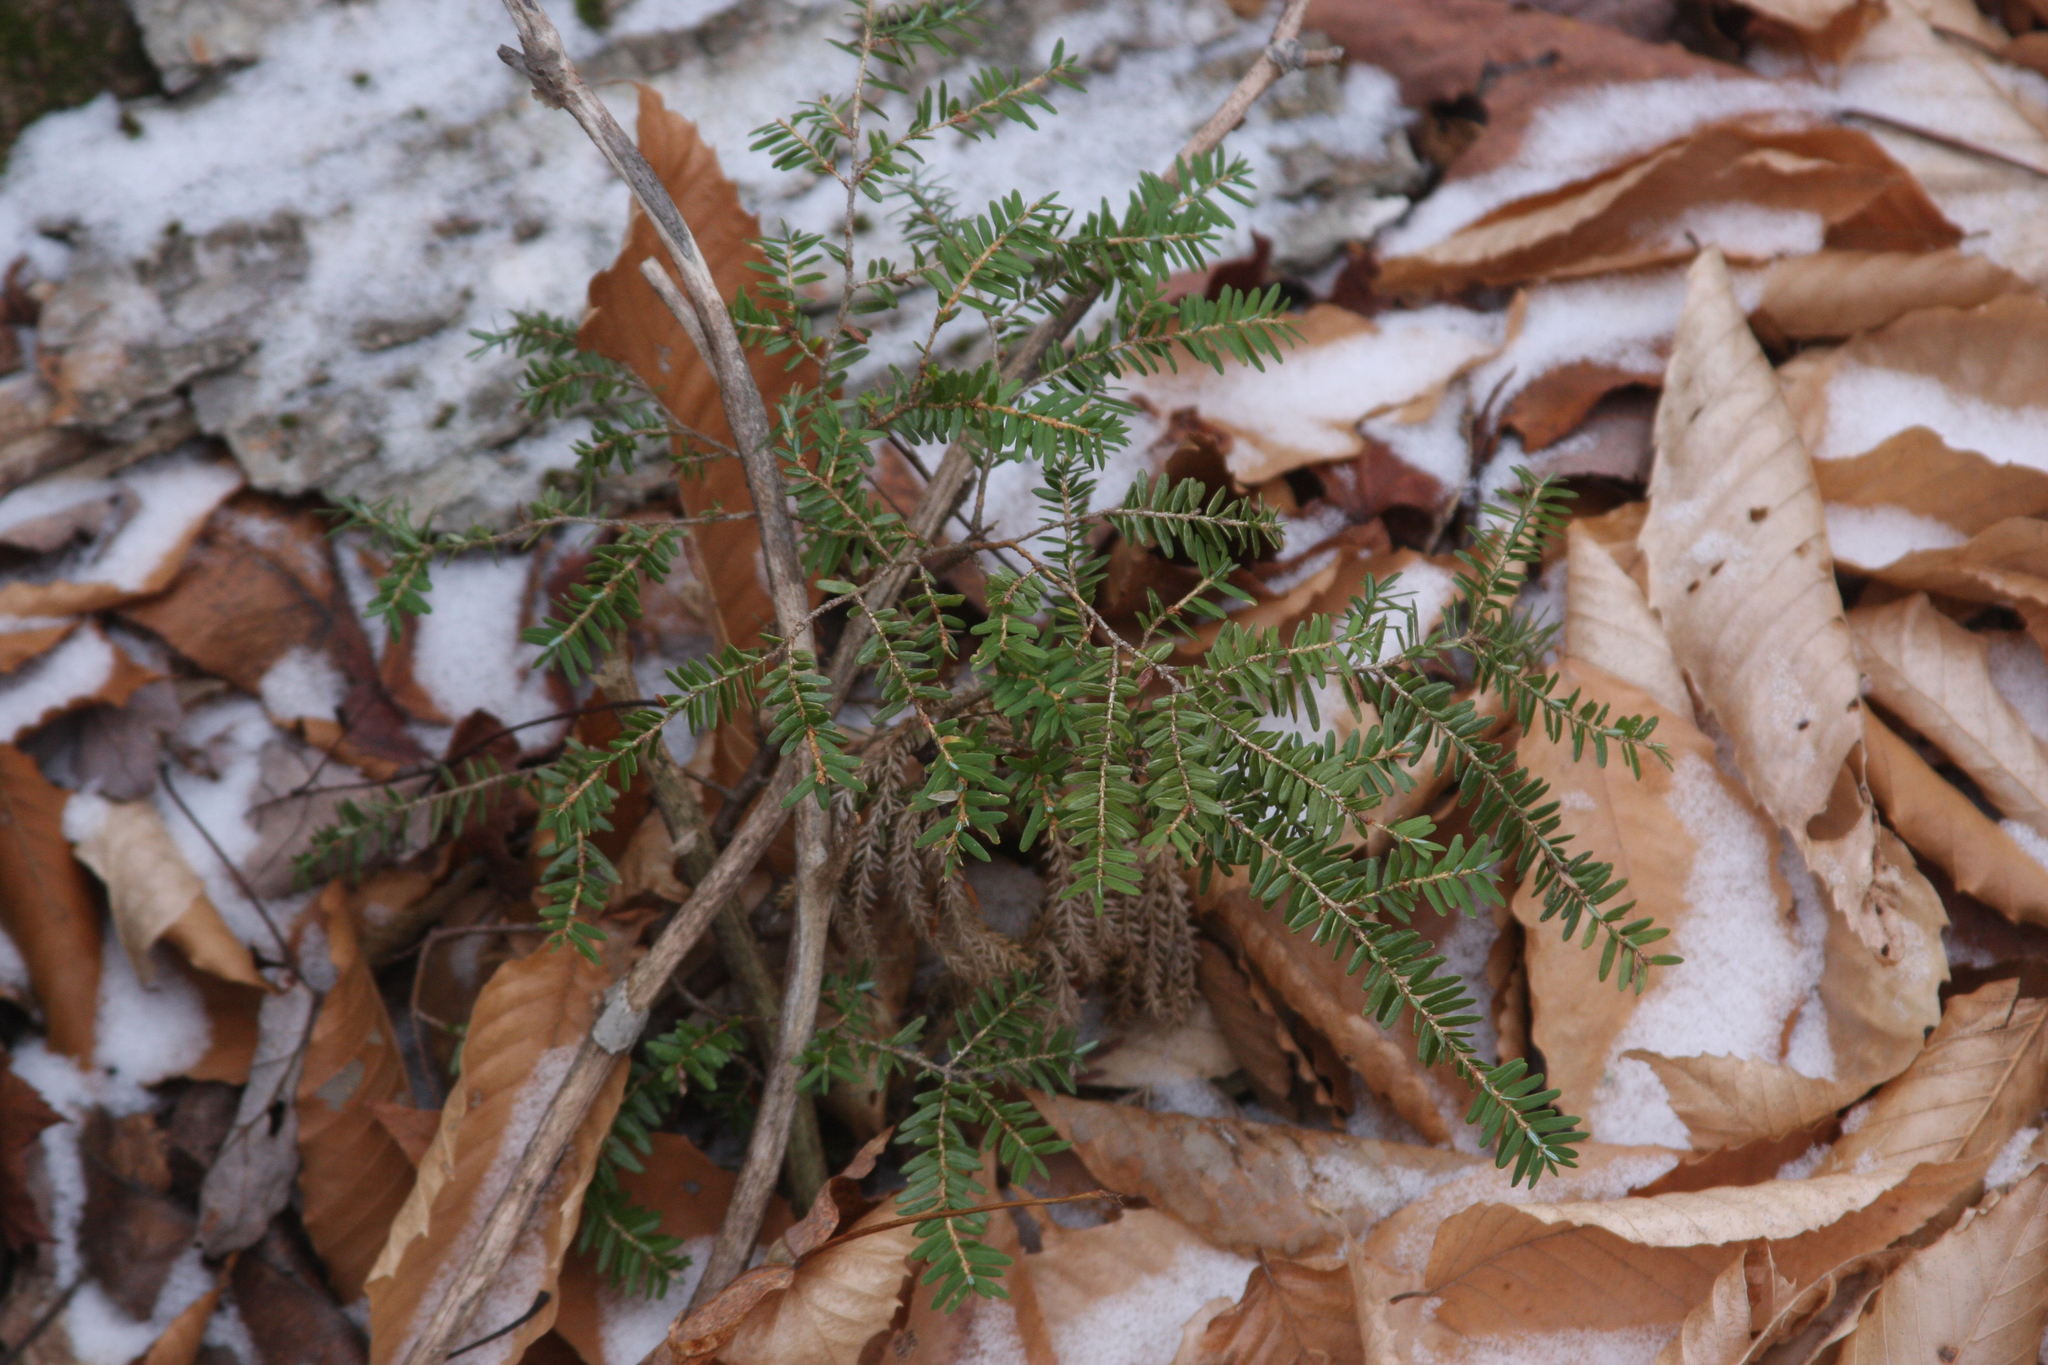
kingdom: Plantae
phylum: Tracheophyta
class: Pinopsida
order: Pinales
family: Pinaceae
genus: Tsuga
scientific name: Tsuga canadensis
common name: Eastern hemlock
